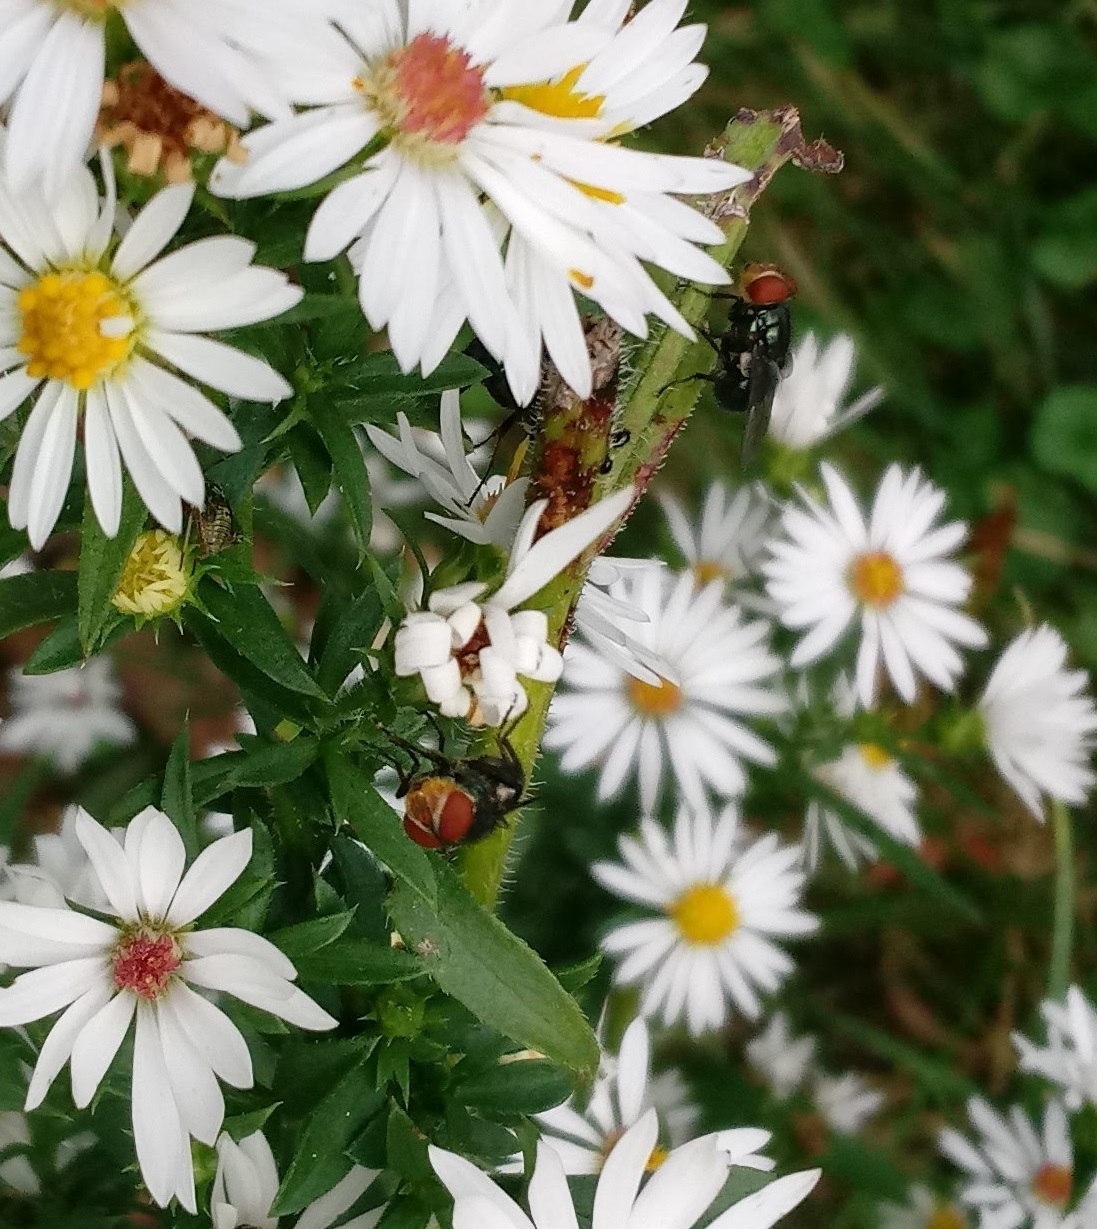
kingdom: Animalia
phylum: Arthropoda
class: Insecta
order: Diptera
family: Calliphoridae
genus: Cochliomyia
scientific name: Cochliomyia macellaria
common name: Secondary screwworm
